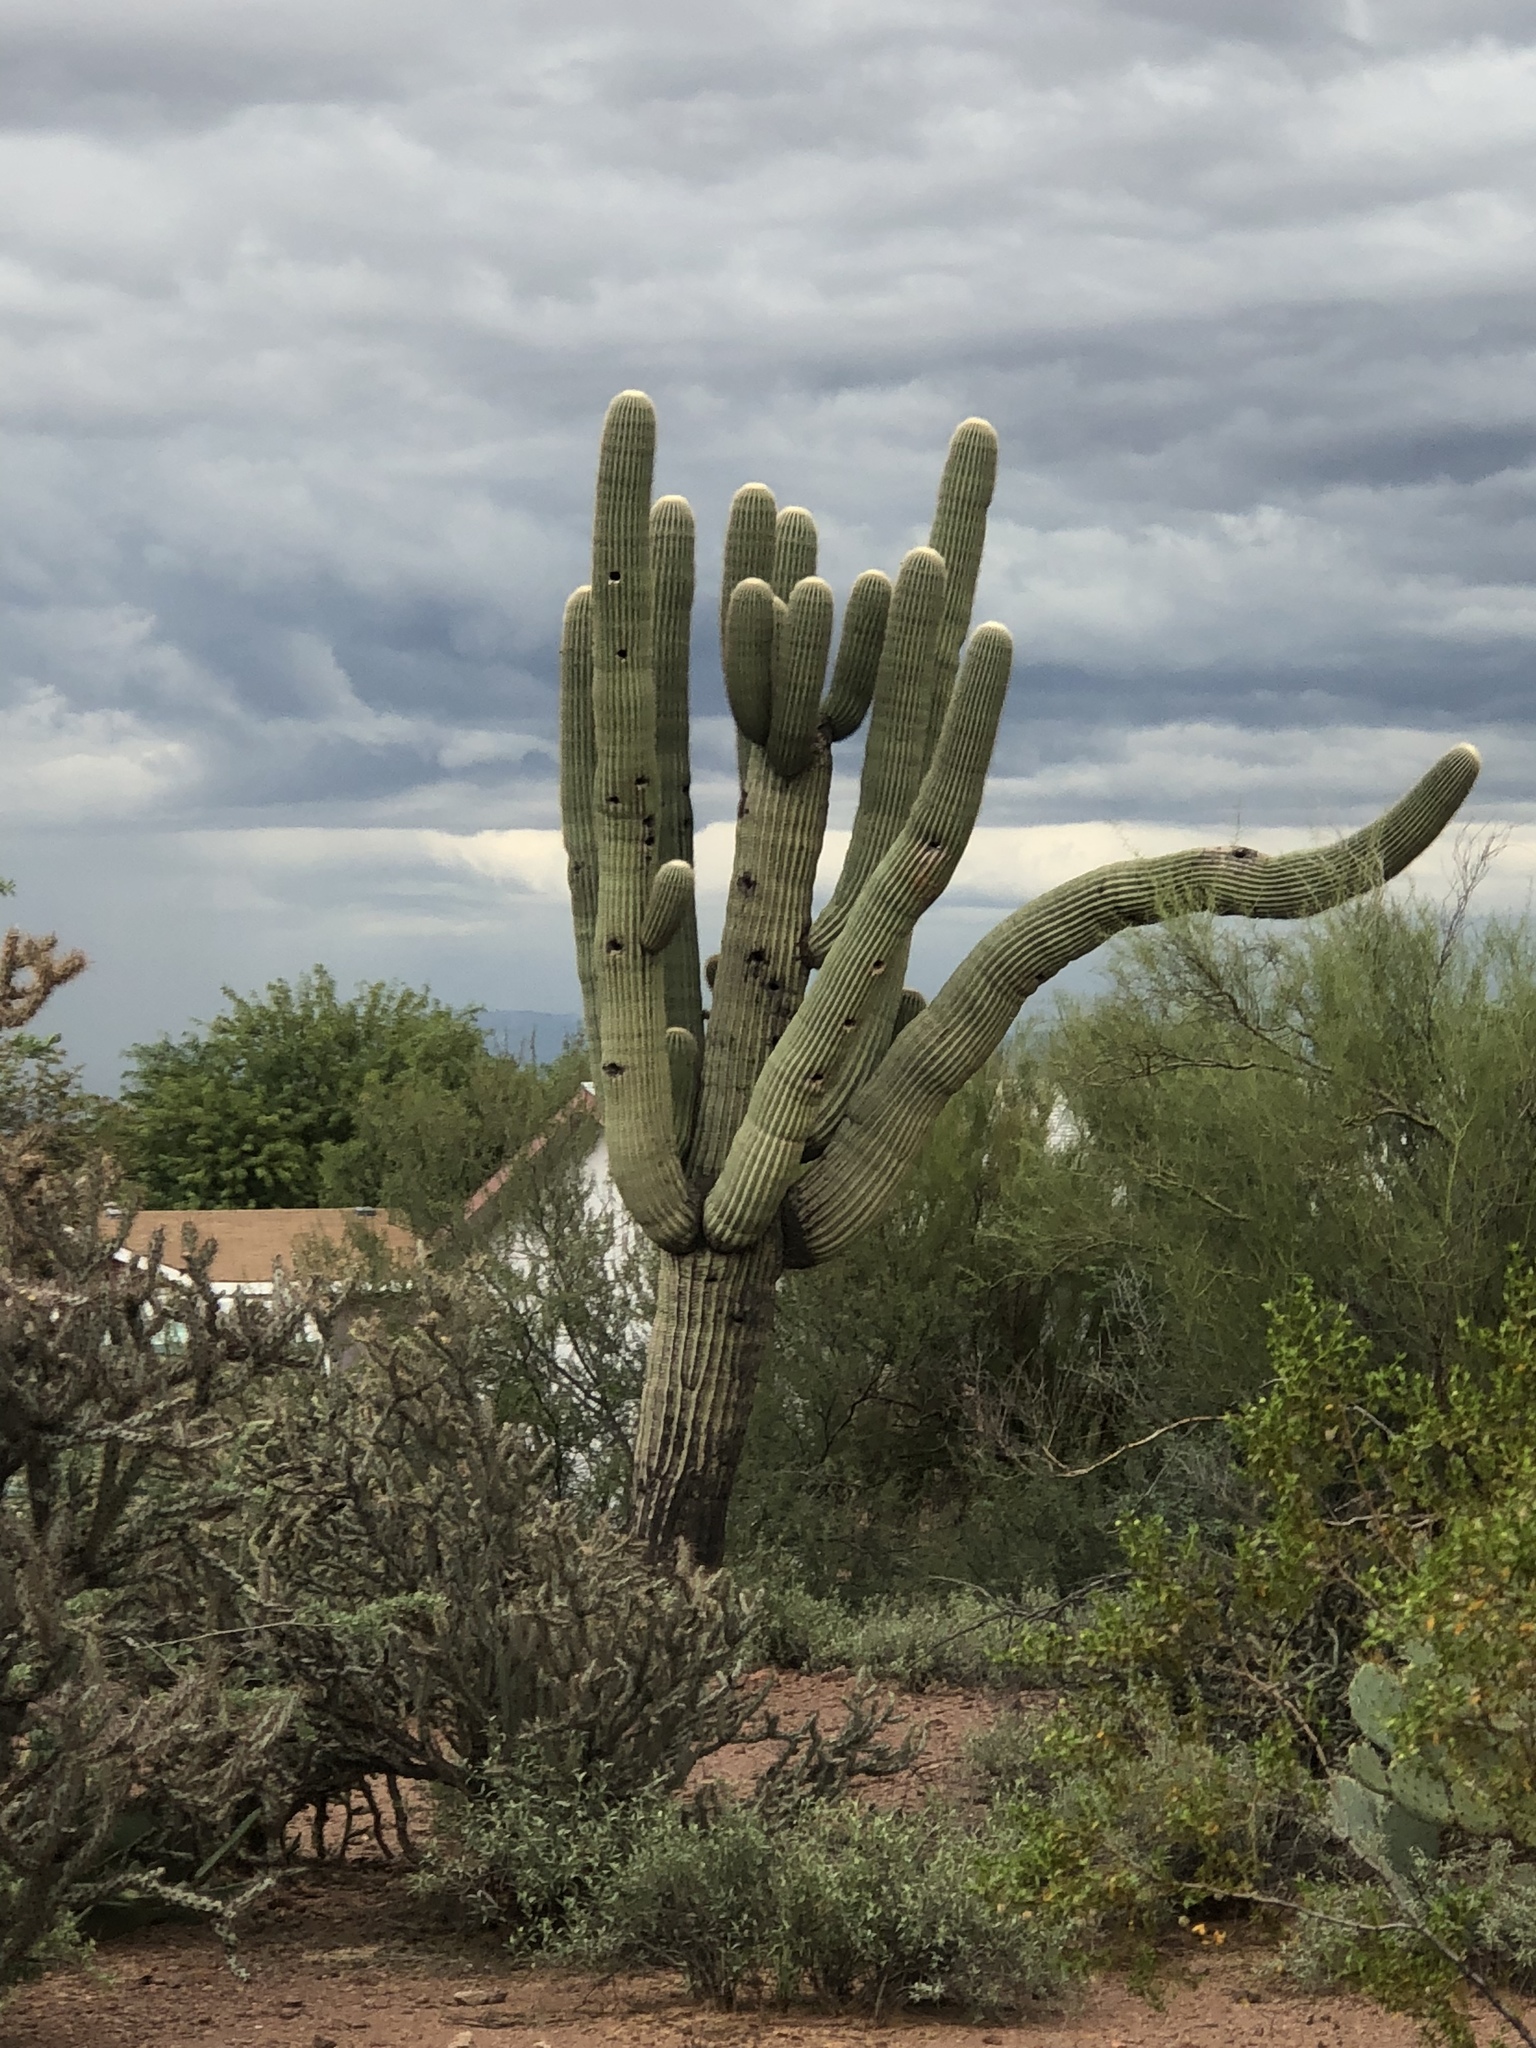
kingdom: Plantae
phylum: Tracheophyta
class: Magnoliopsida
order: Caryophyllales
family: Cactaceae
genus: Carnegiea
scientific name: Carnegiea gigantea
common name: Saguaro
